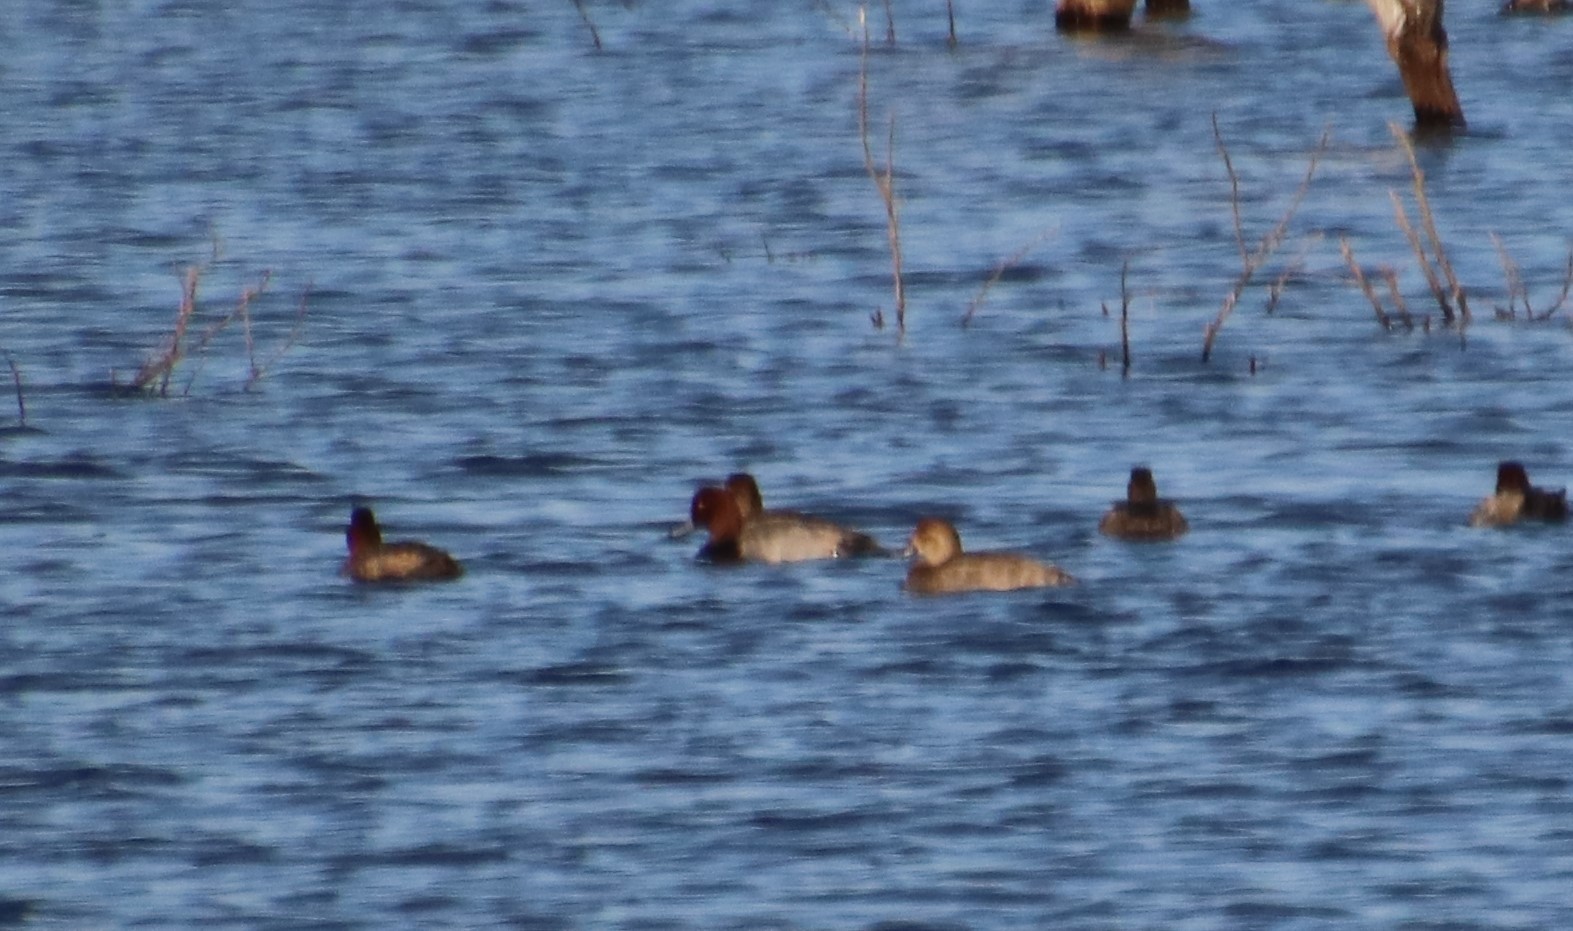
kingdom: Animalia
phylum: Chordata
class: Aves
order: Anseriformes
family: Anatidae
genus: Aythya
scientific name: Aythya americana
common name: Redhead
